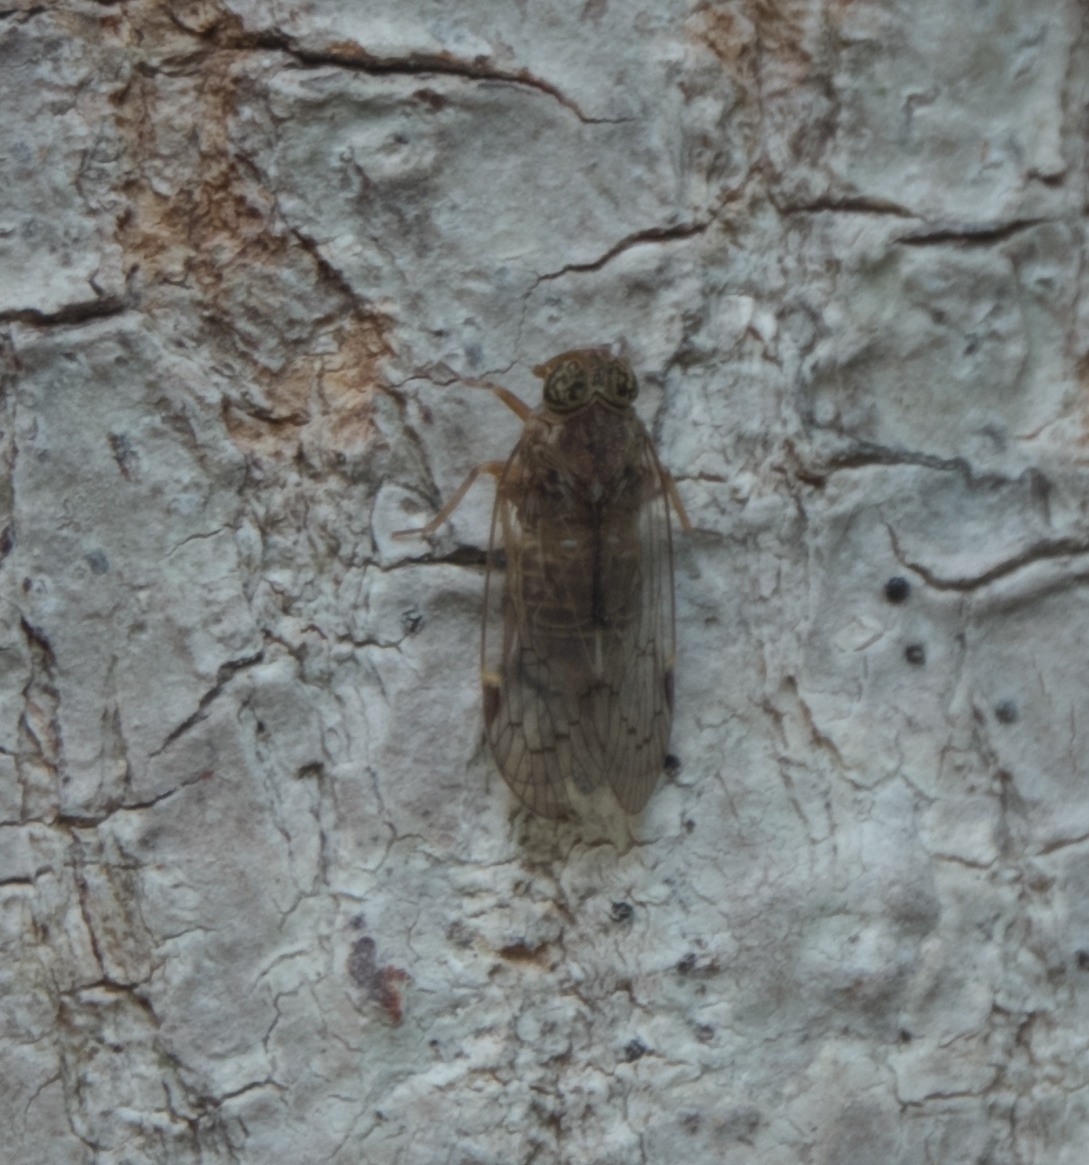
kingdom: Animalia
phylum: Arthropoda
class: Insecta
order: Hemiptera
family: Cixiidae
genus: Melanoliarus
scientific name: Melanoliarus slossonae
